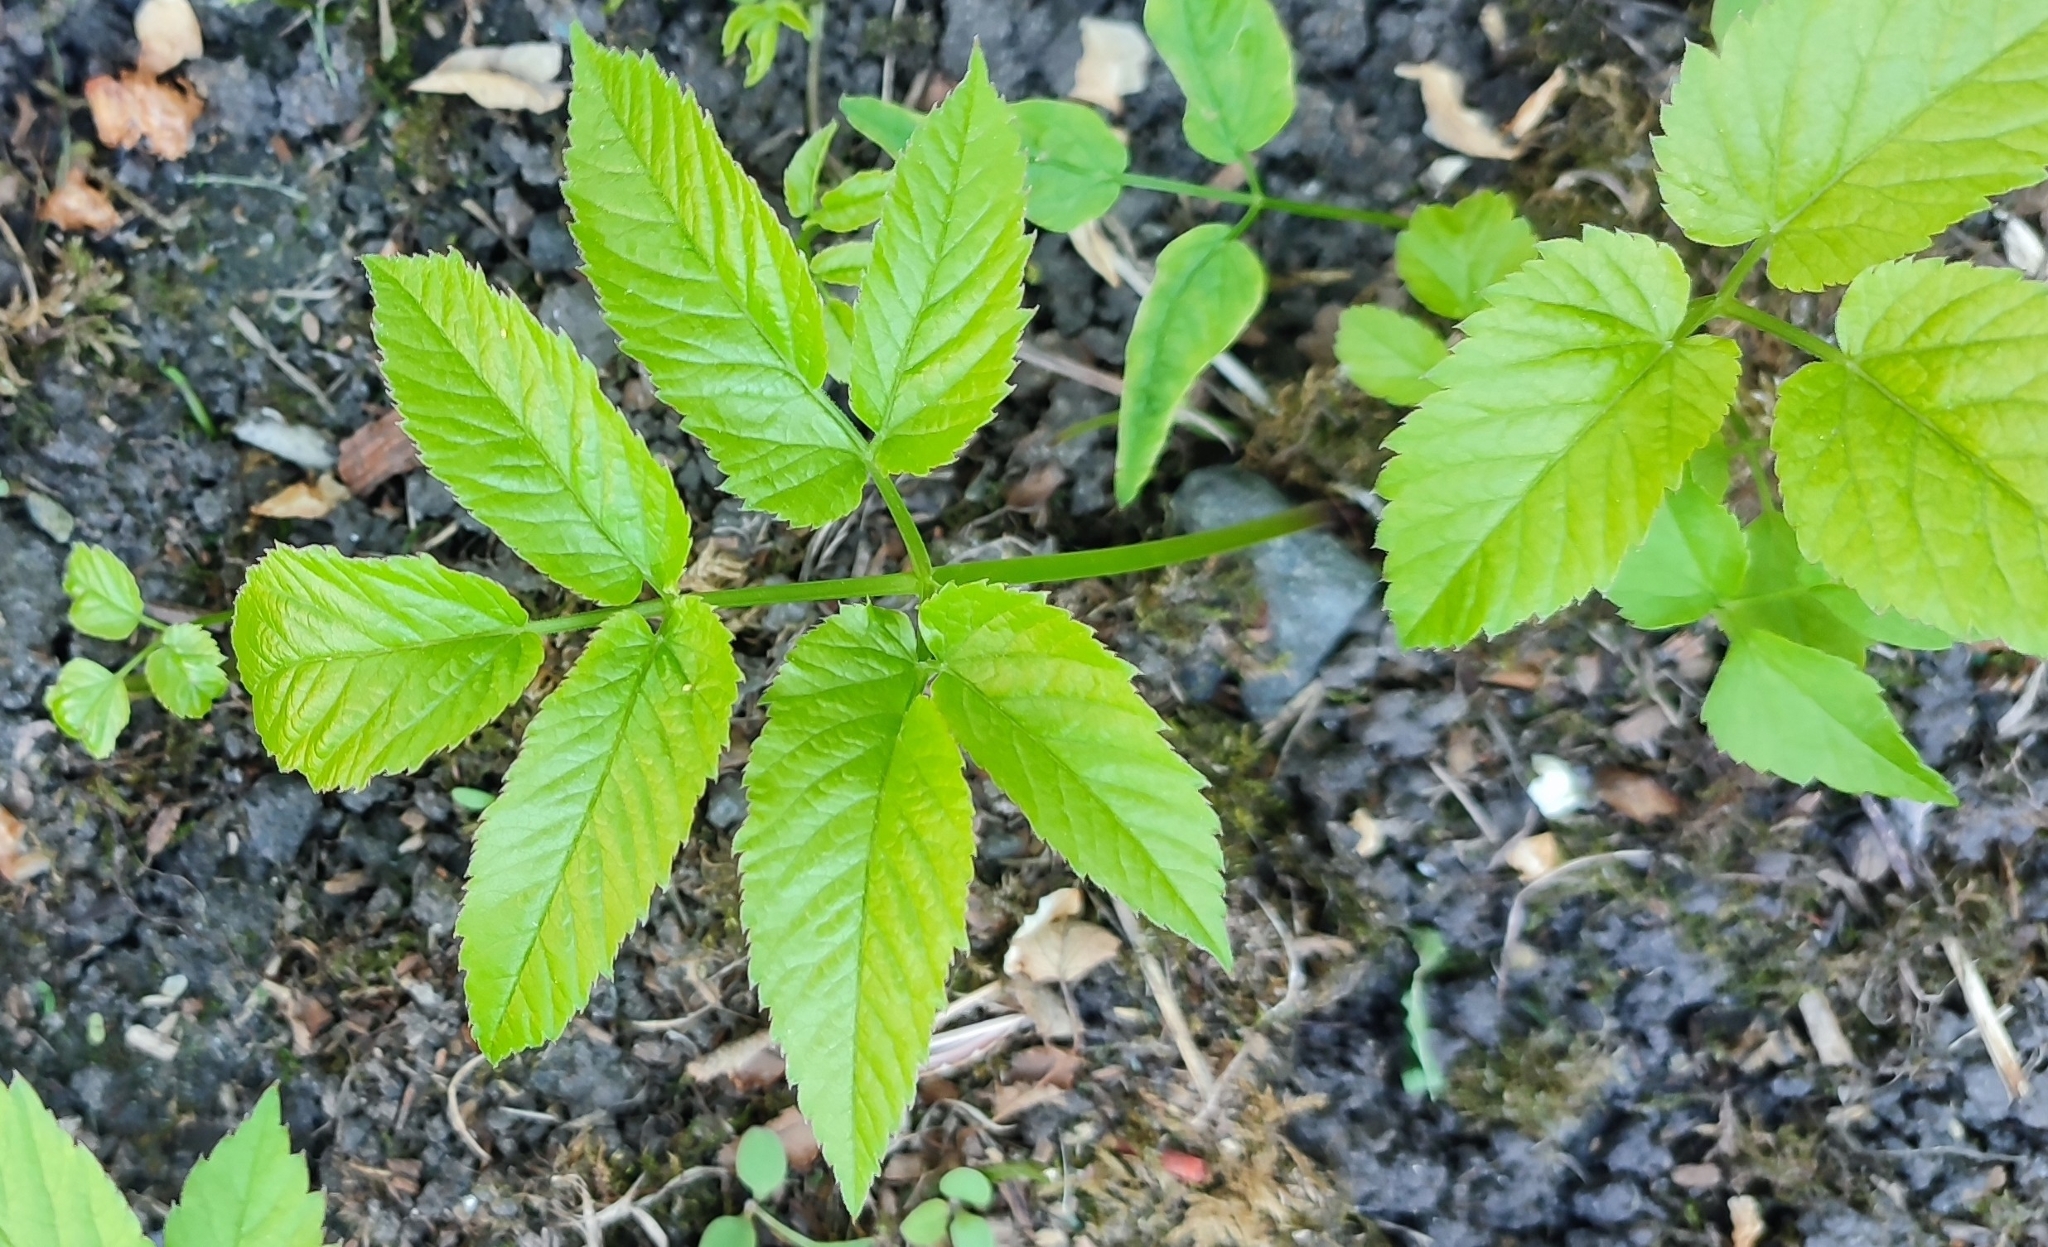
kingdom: Plantae
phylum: Tracheophyta
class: Magnoliopsida
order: Apiales
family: Apiaceae
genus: Aegopodium
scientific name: Aegopodium podagraria
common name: Ground-elder
